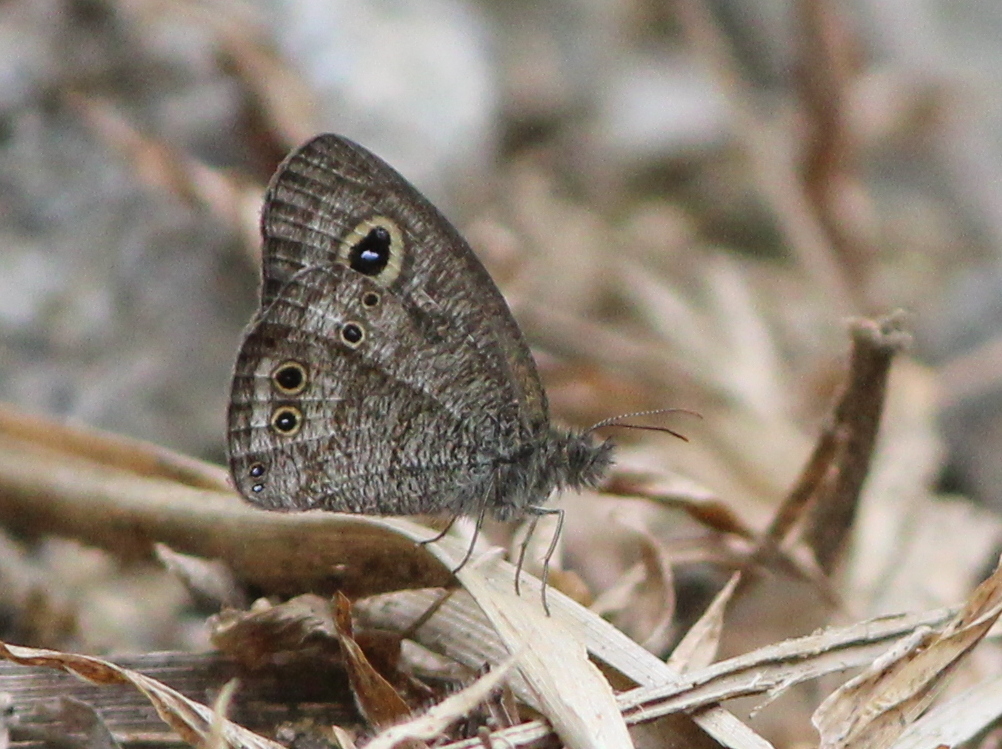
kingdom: Animalia
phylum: Arthropoda
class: Insecta
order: Lepidoptera
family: Nymphalidae
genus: Ypthima
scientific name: Ypthima baldus
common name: Common five-ring
